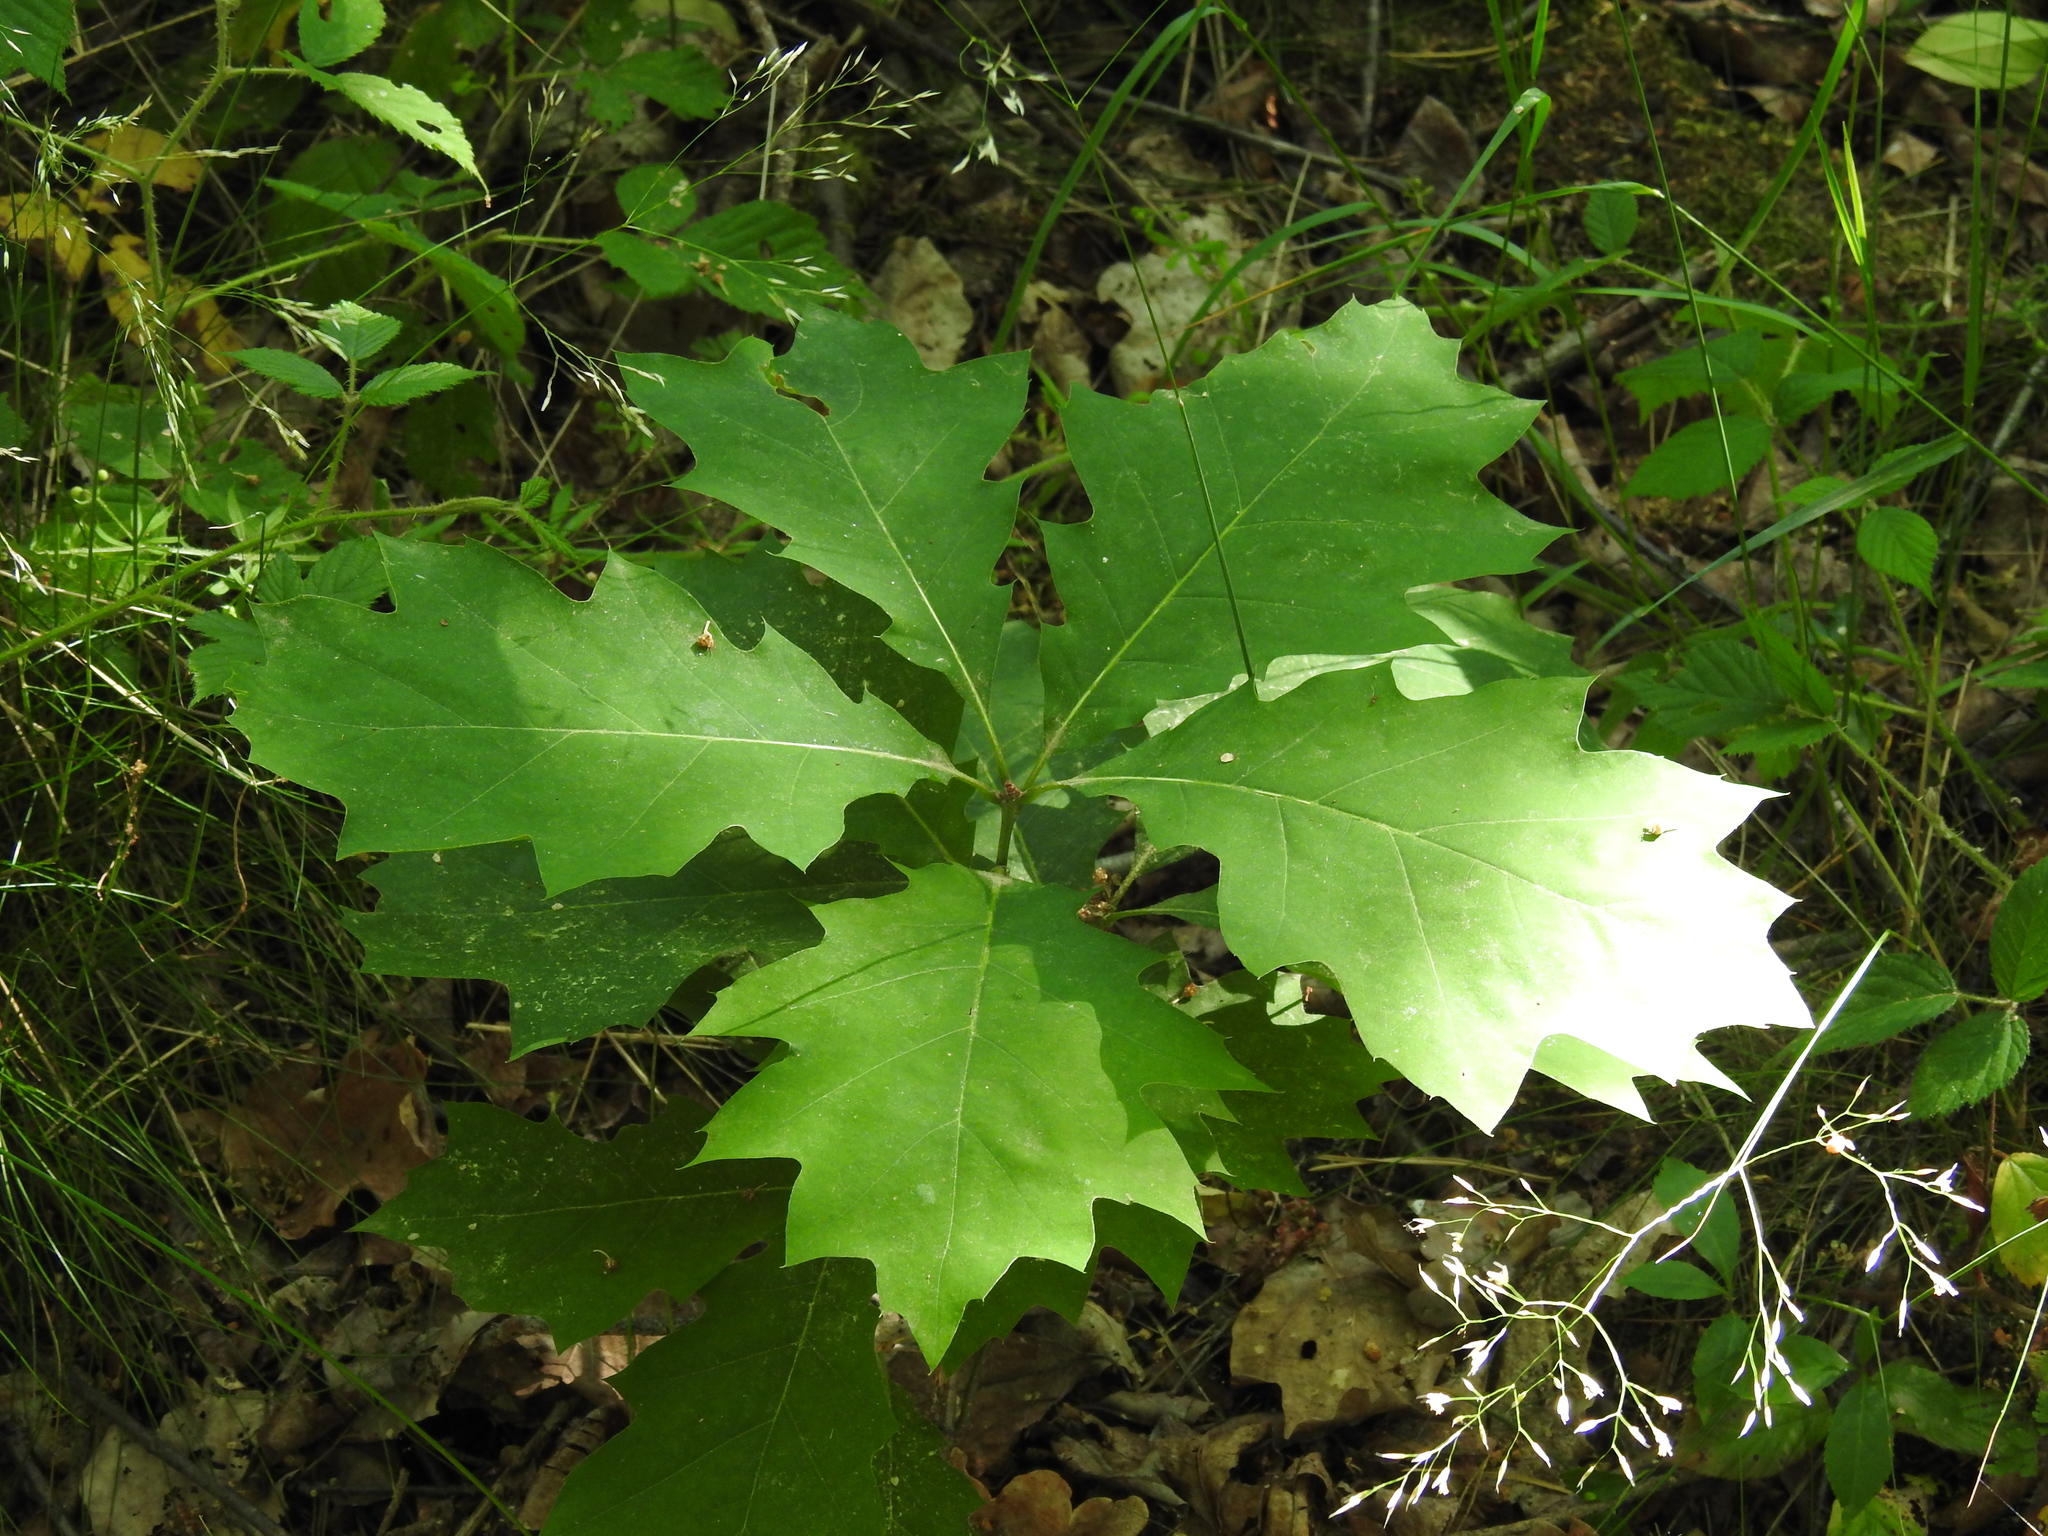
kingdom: Plantae
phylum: Tracheophyta
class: Magnoliopsida
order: Fagales
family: Fagaceae
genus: Quercus
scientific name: Quercus rubra
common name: Red oak
